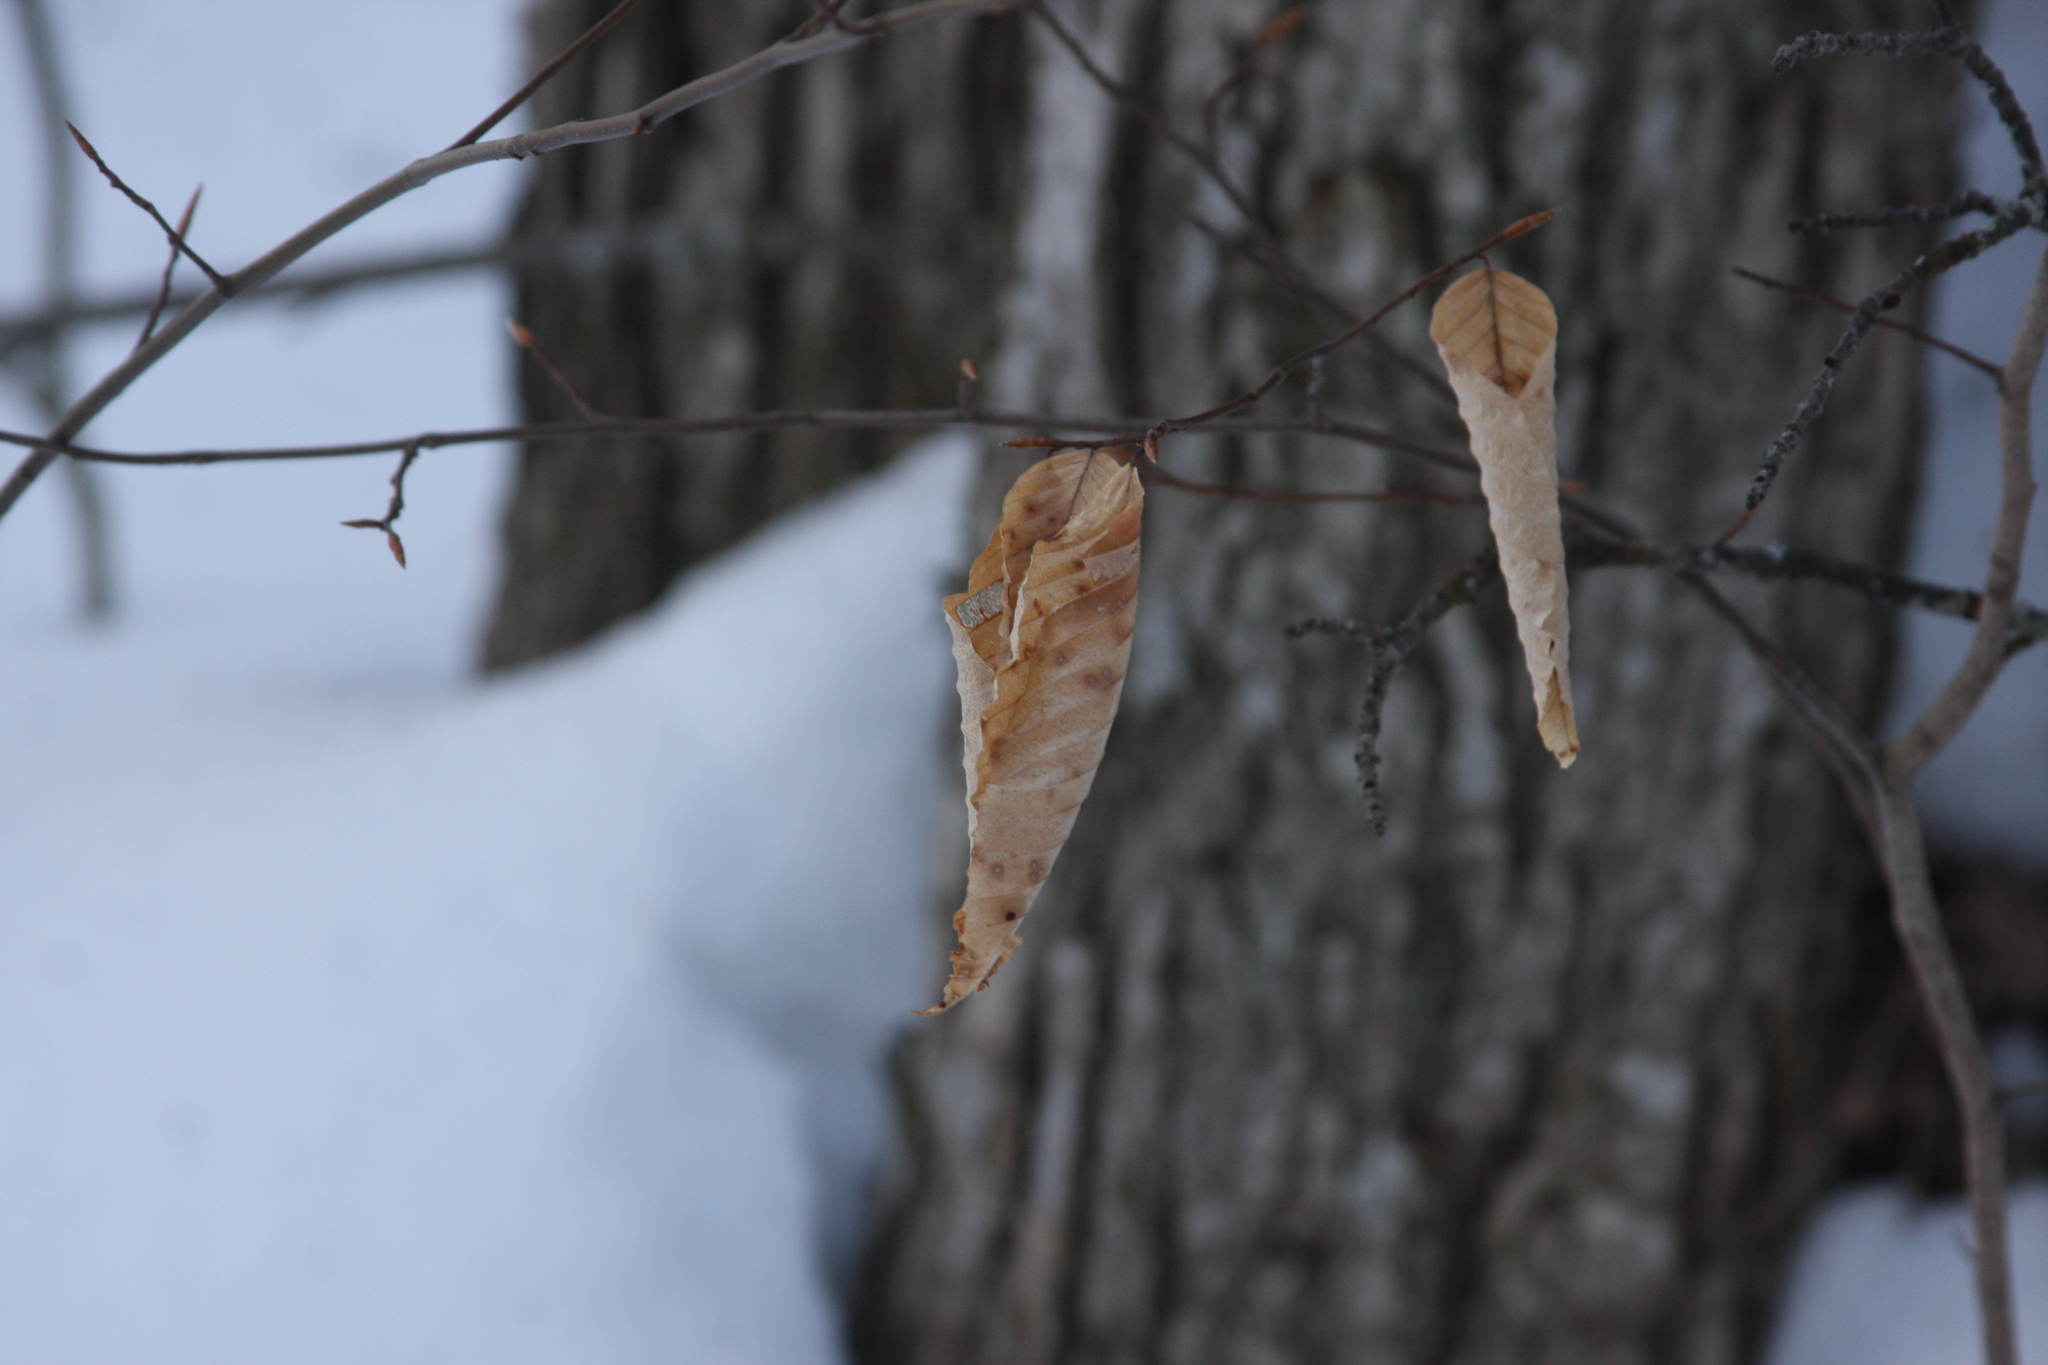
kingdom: Plantae
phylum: Tracheophyta
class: Magnoliopsida
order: Fagales
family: Fagaceae
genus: Fagus
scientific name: Fagus grandifolia
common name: American beech
